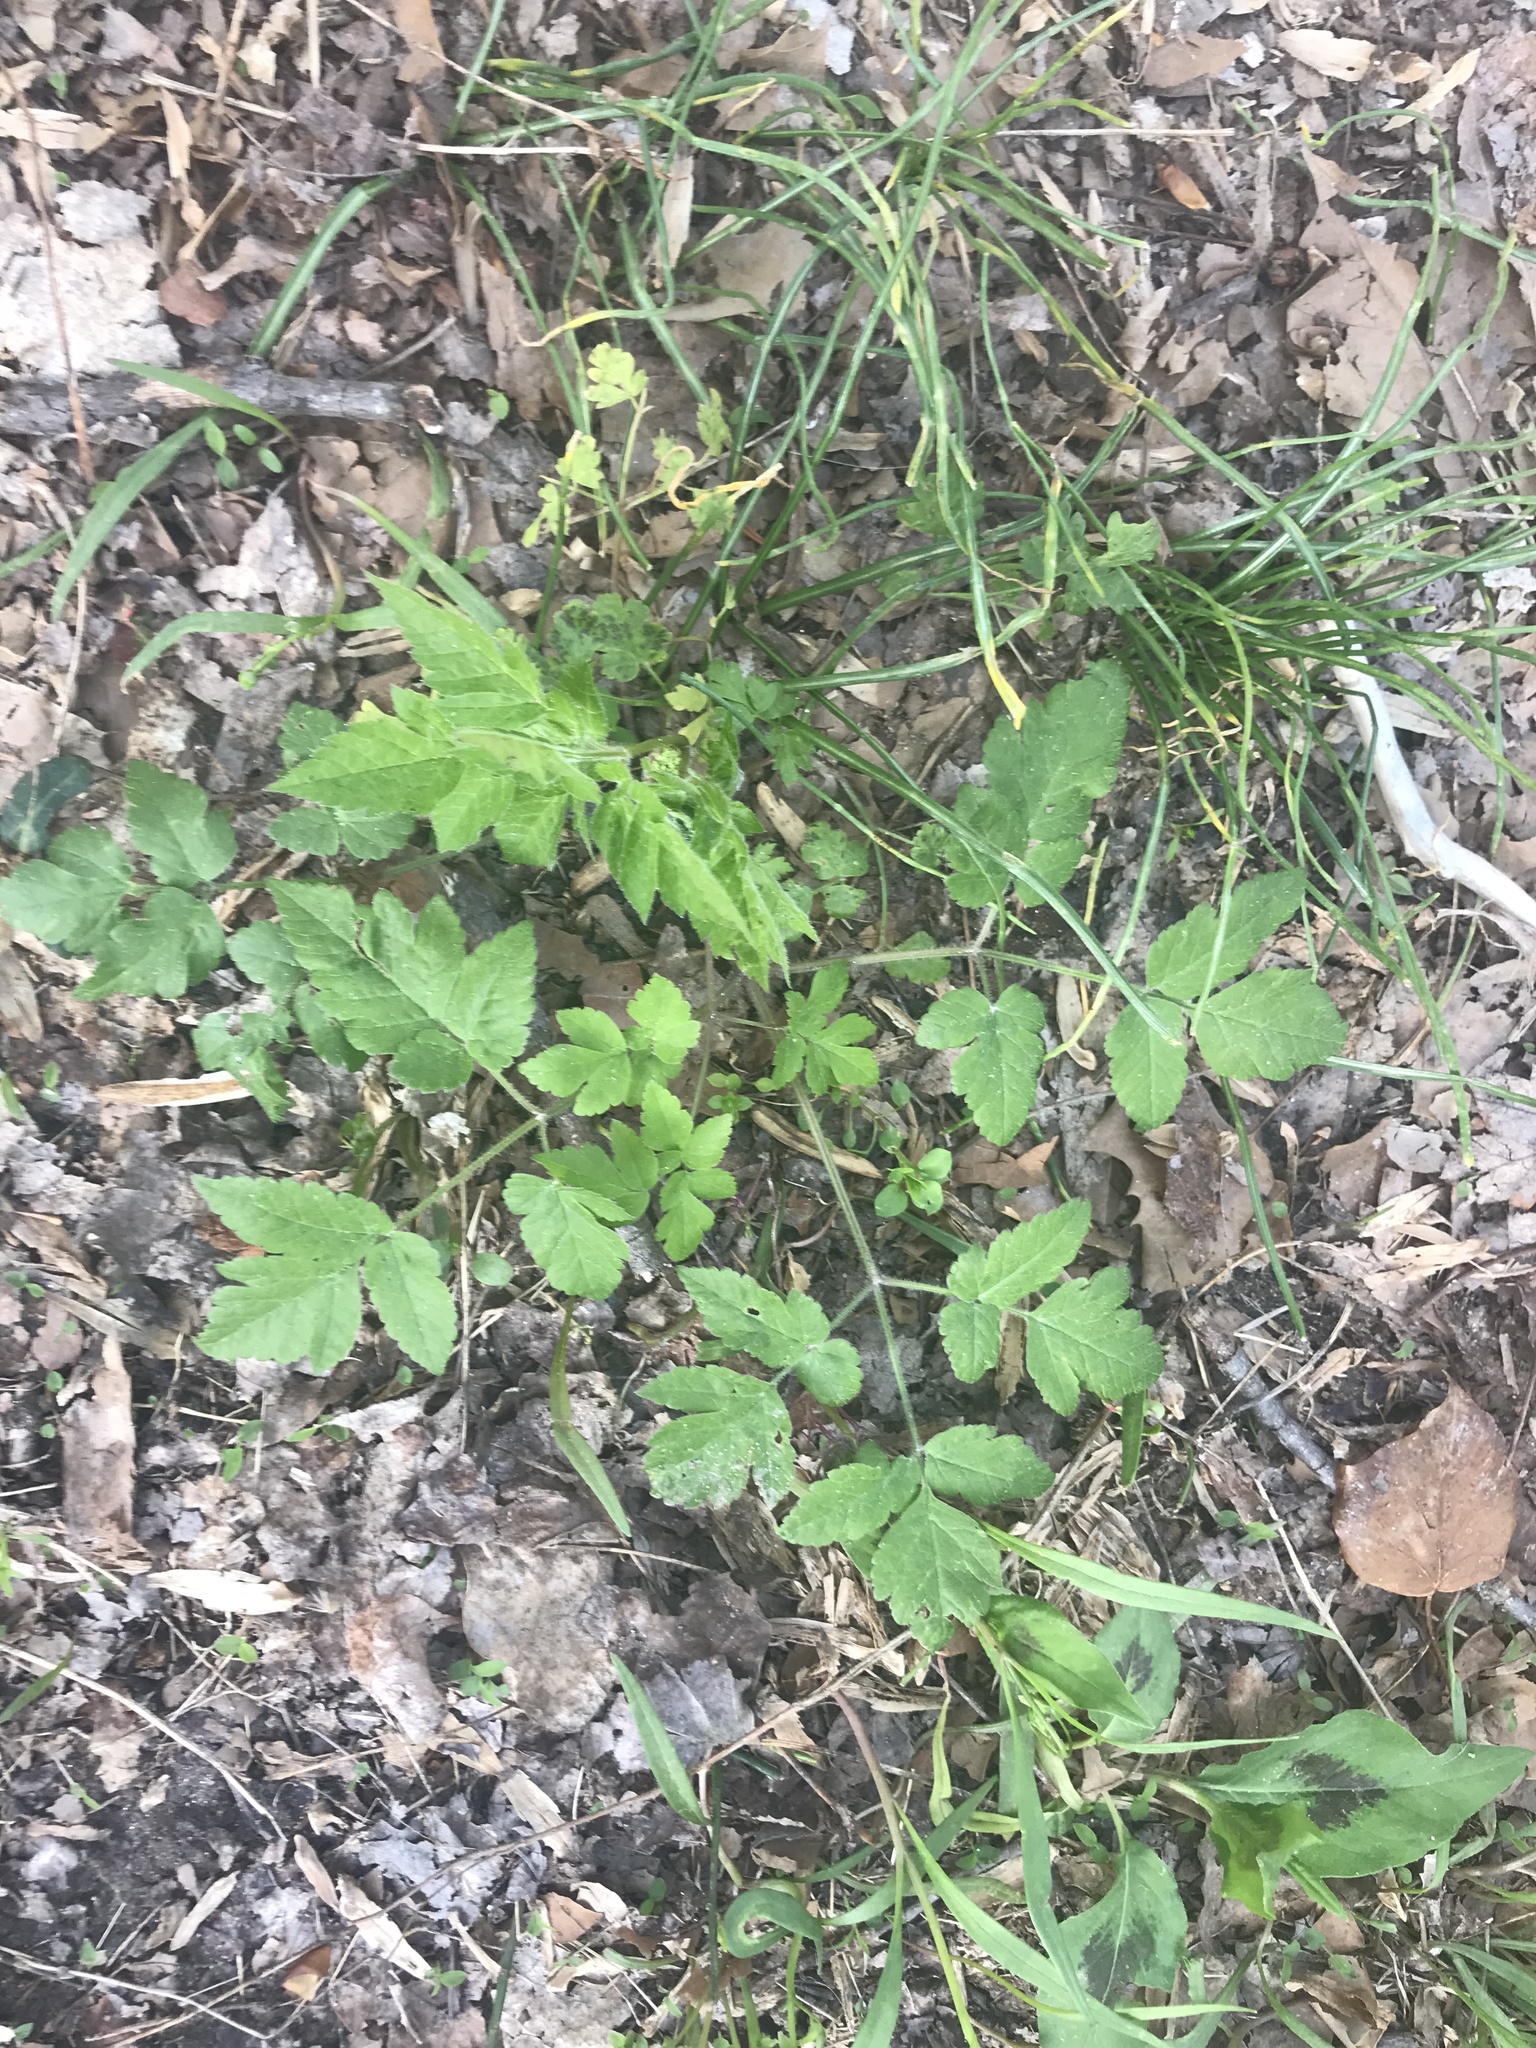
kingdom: Plantae
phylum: Tracheophyta
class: Magnoliopsida
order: Apiales
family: Apiaceae
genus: Osmorhiza
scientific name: Osmorhiza claytonii
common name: Hairy sweet cicely
